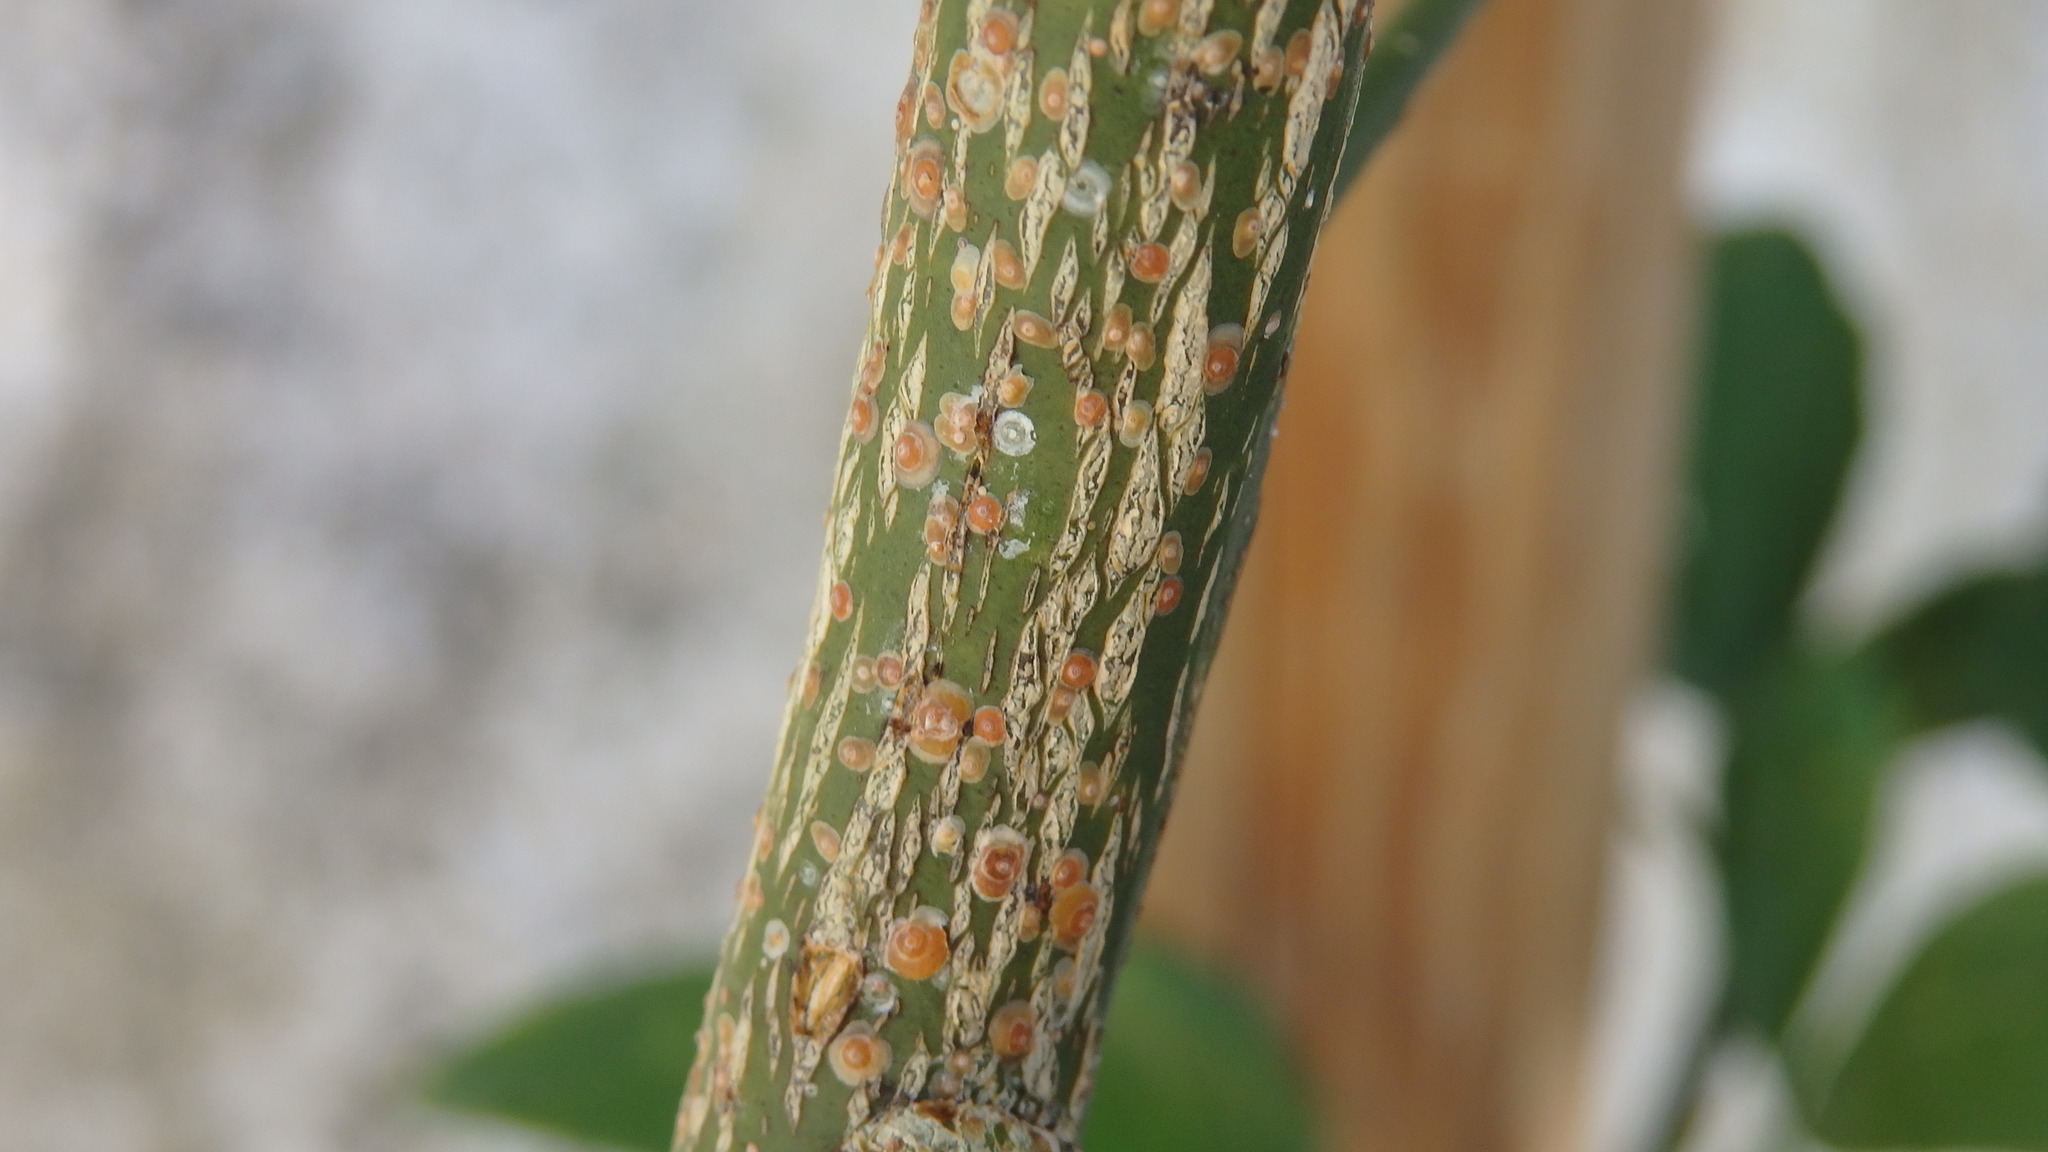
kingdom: Animalia
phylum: Arthropoda
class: Insecta
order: Hemiptera
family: Diaspididae
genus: Aonidiella
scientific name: Aonidiella aurantii
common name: California red scale
